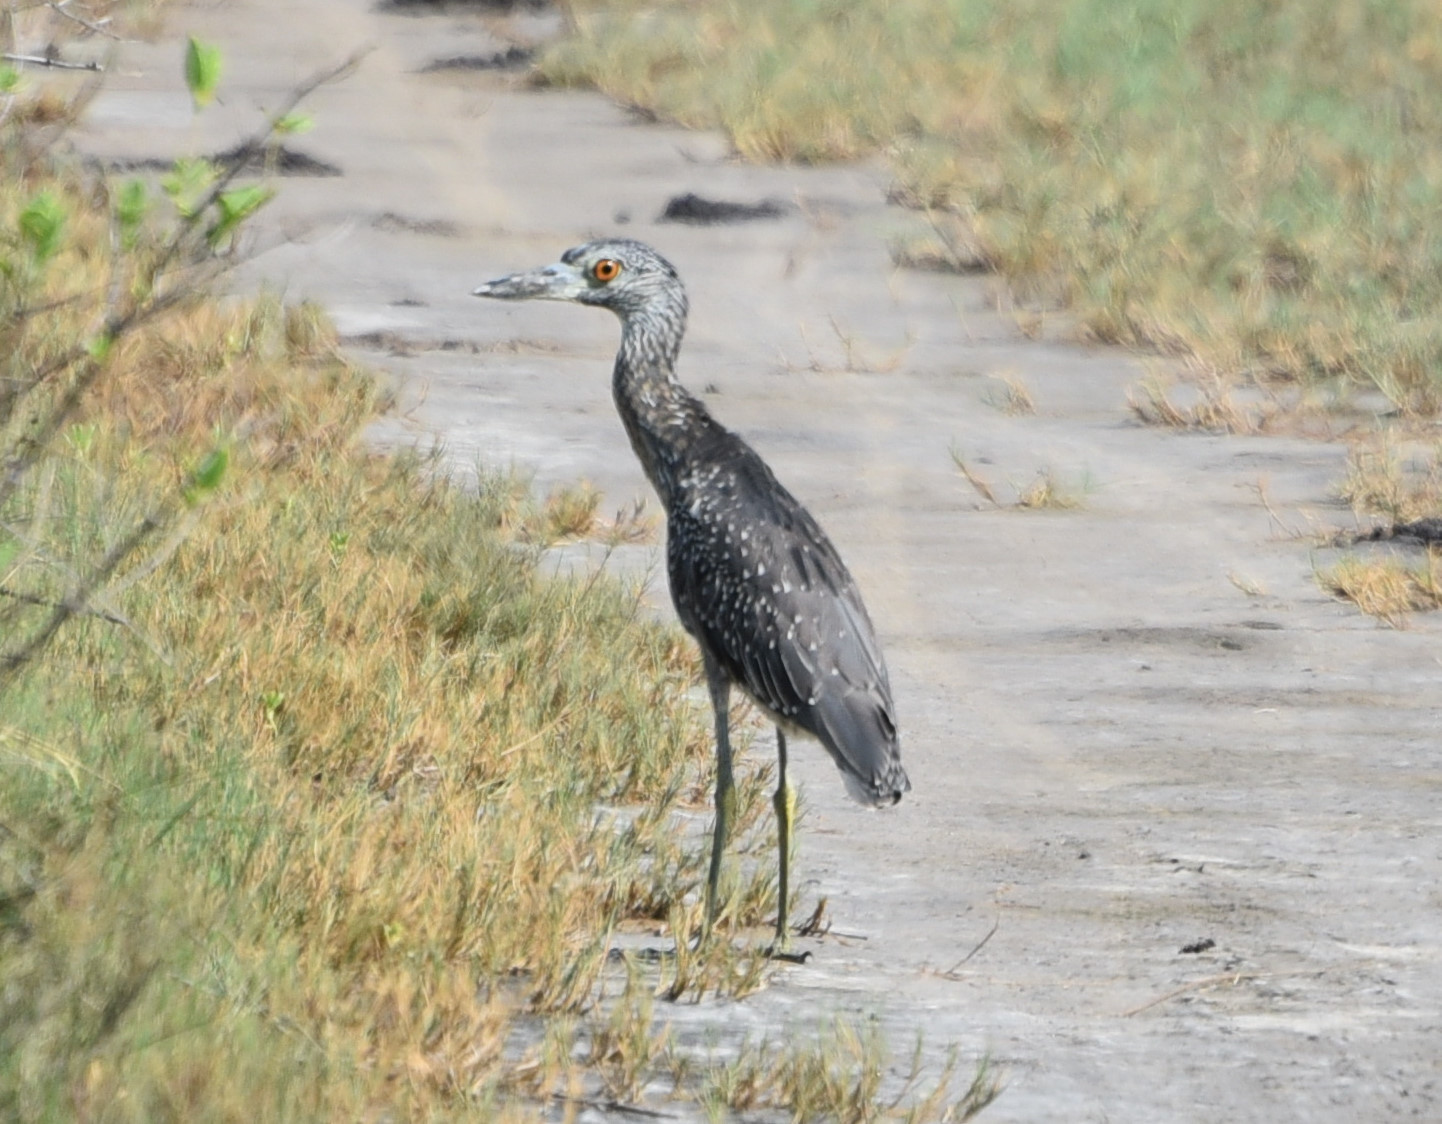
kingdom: Animalia
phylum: Chordata
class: Aves
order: Pelecaniformes
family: Ardeidae
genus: Nyctanassa
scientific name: Nyctanassa violacea
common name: Yellow-crowned night heron
